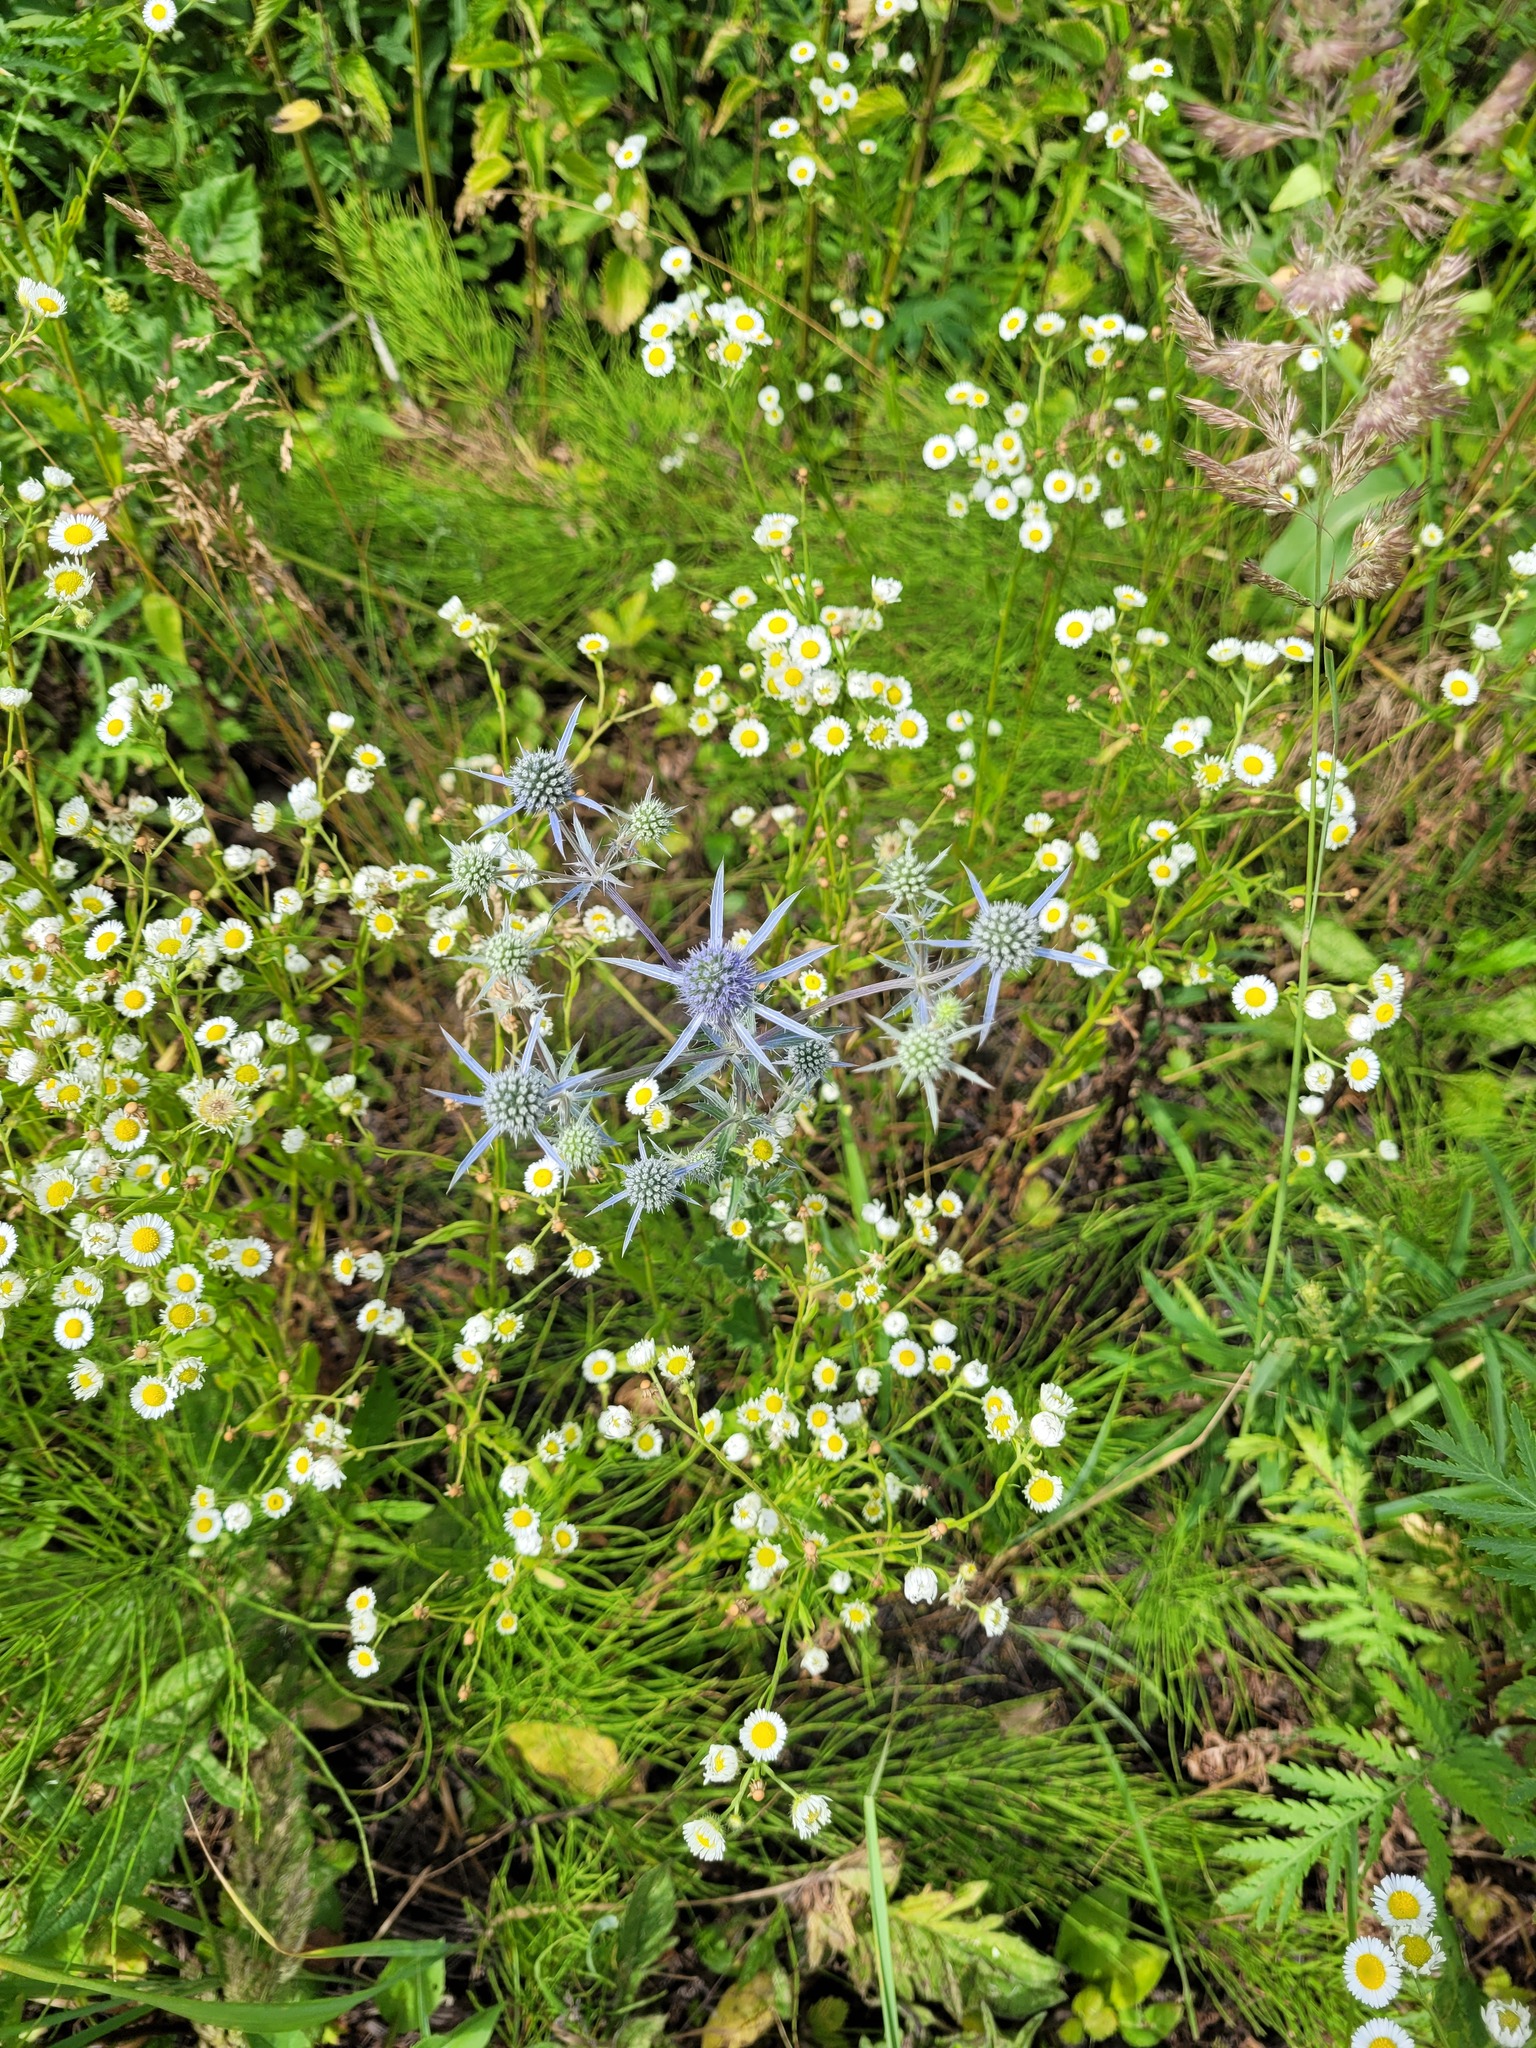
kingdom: Plantae
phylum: Tracheophyta
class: Magnoliopsida
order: Apiales
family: Apiaceae
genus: Eryngium
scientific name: Eryngium planum
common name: Blue eryngo
